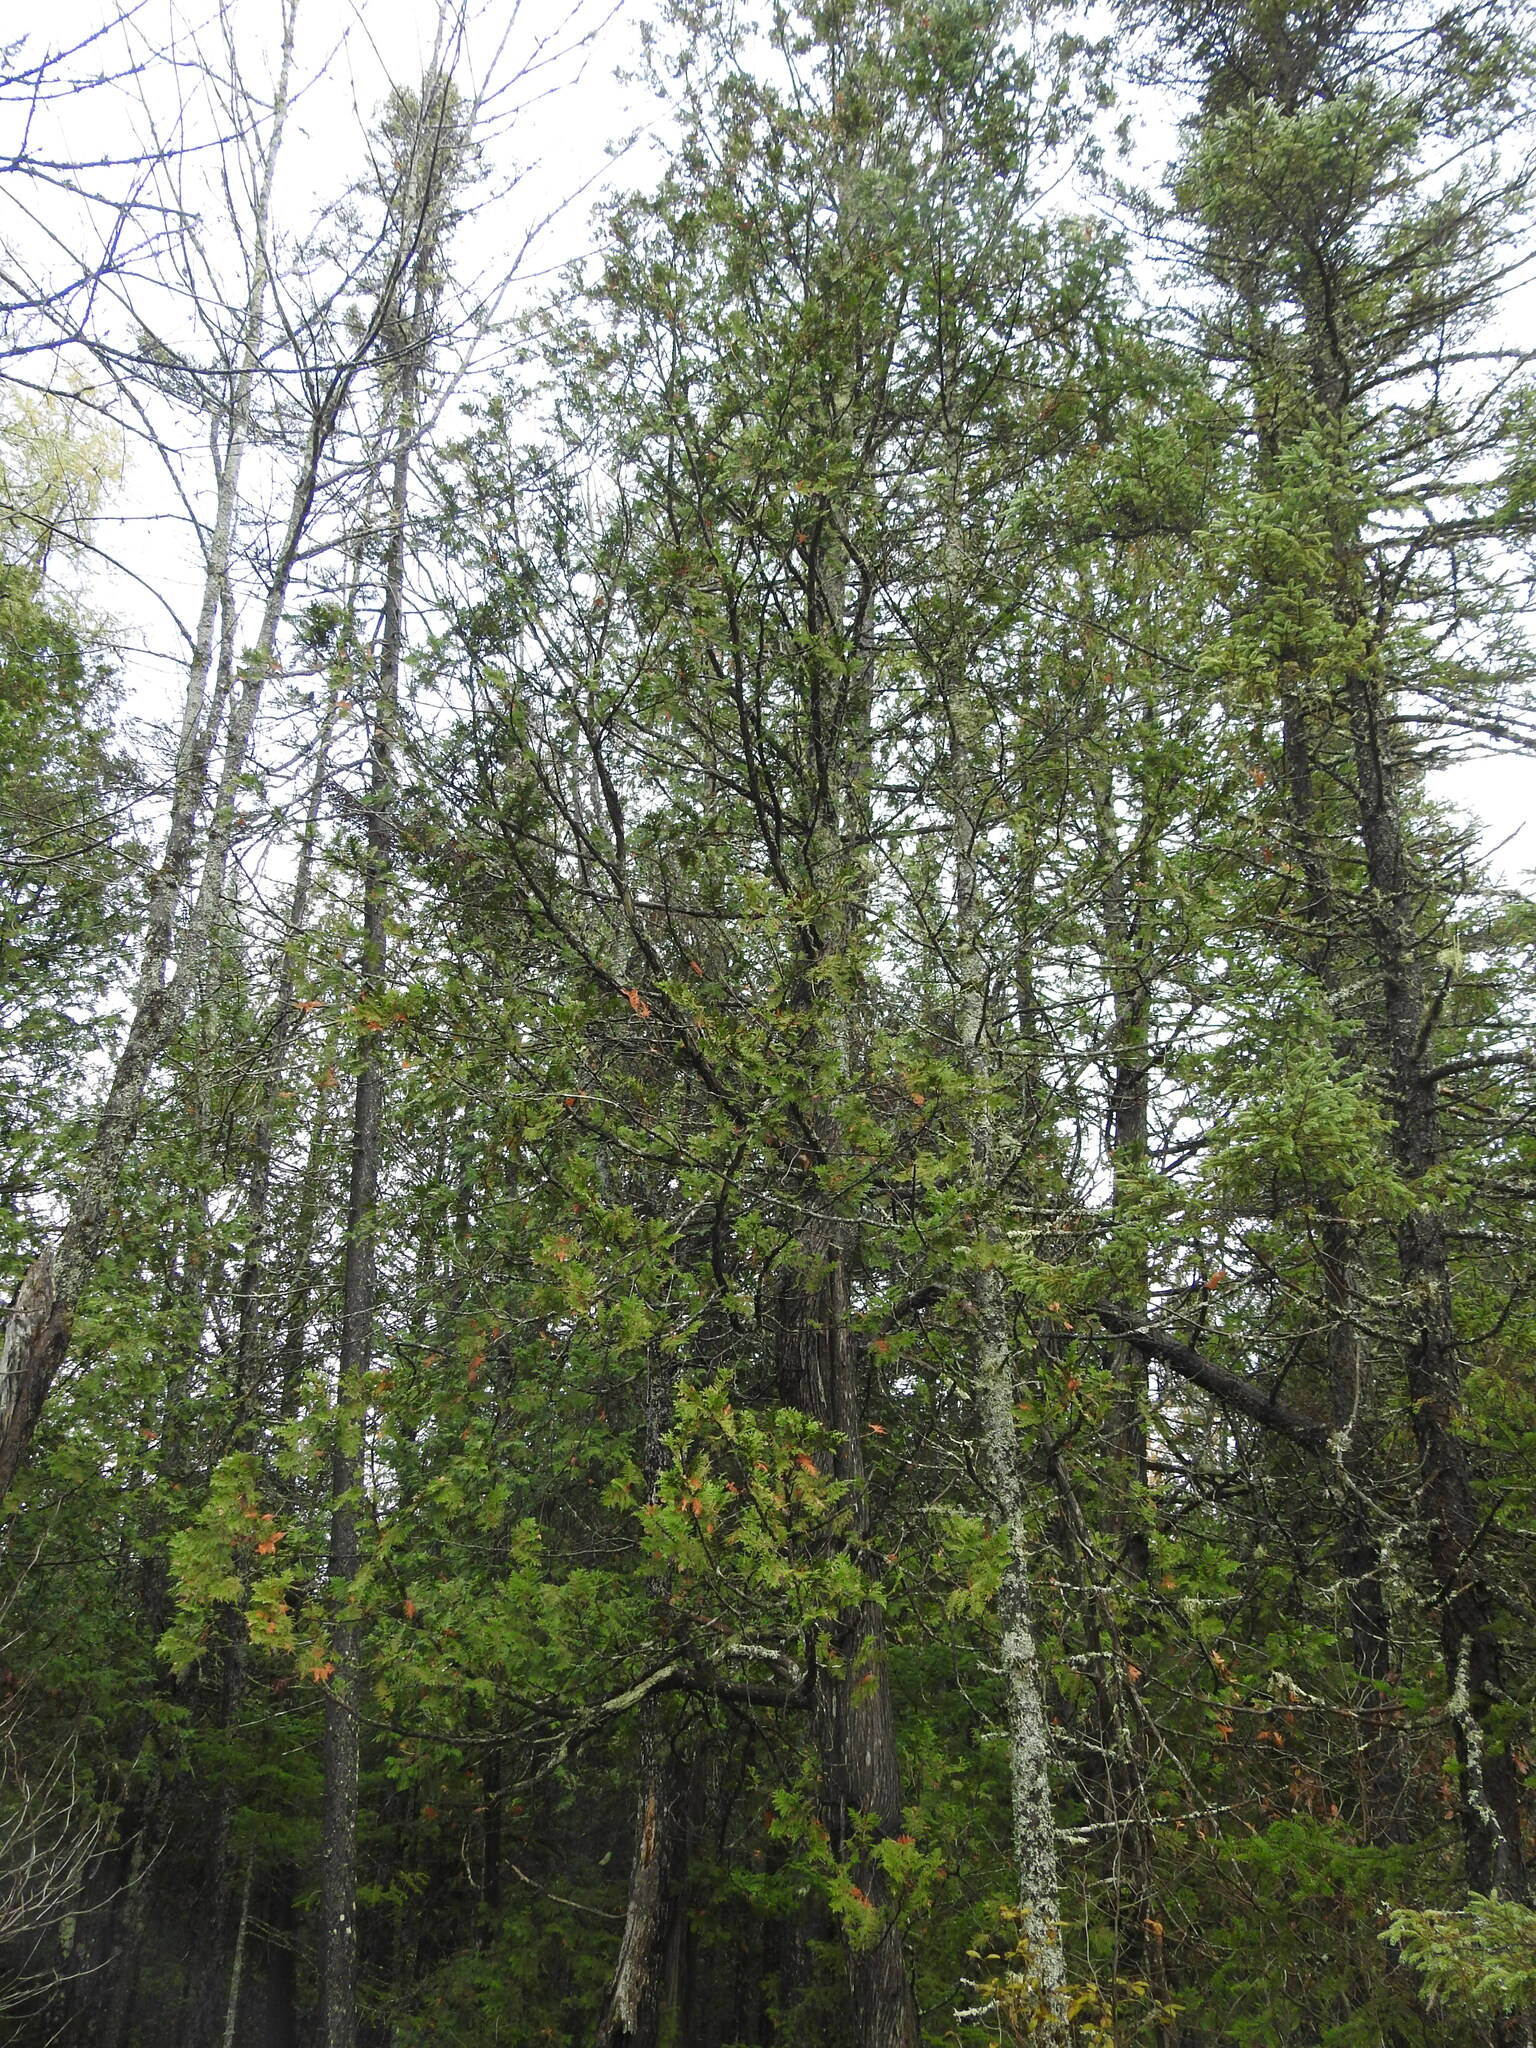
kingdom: Plantae
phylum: Tracheophyta
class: Pinopsida
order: Pinales
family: Cupressaceae
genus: Thuja
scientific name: Thuja occidentalis
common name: Northern white-cedar
